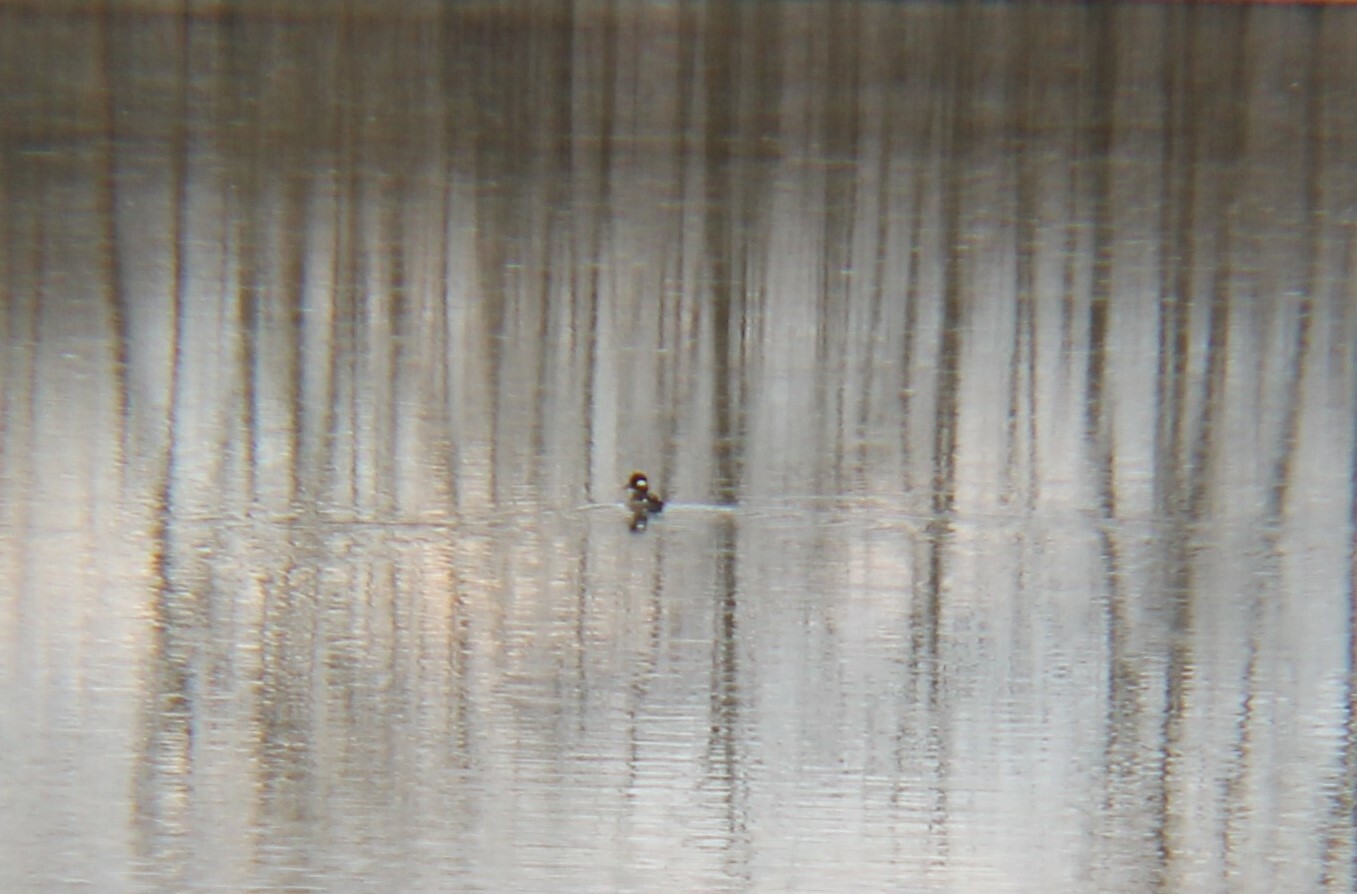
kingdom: Animalia
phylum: Chordata
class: Aves
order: Anseriformes
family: Anatidae
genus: Bucephala
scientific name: Bucephala albeola
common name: Bufflehead
